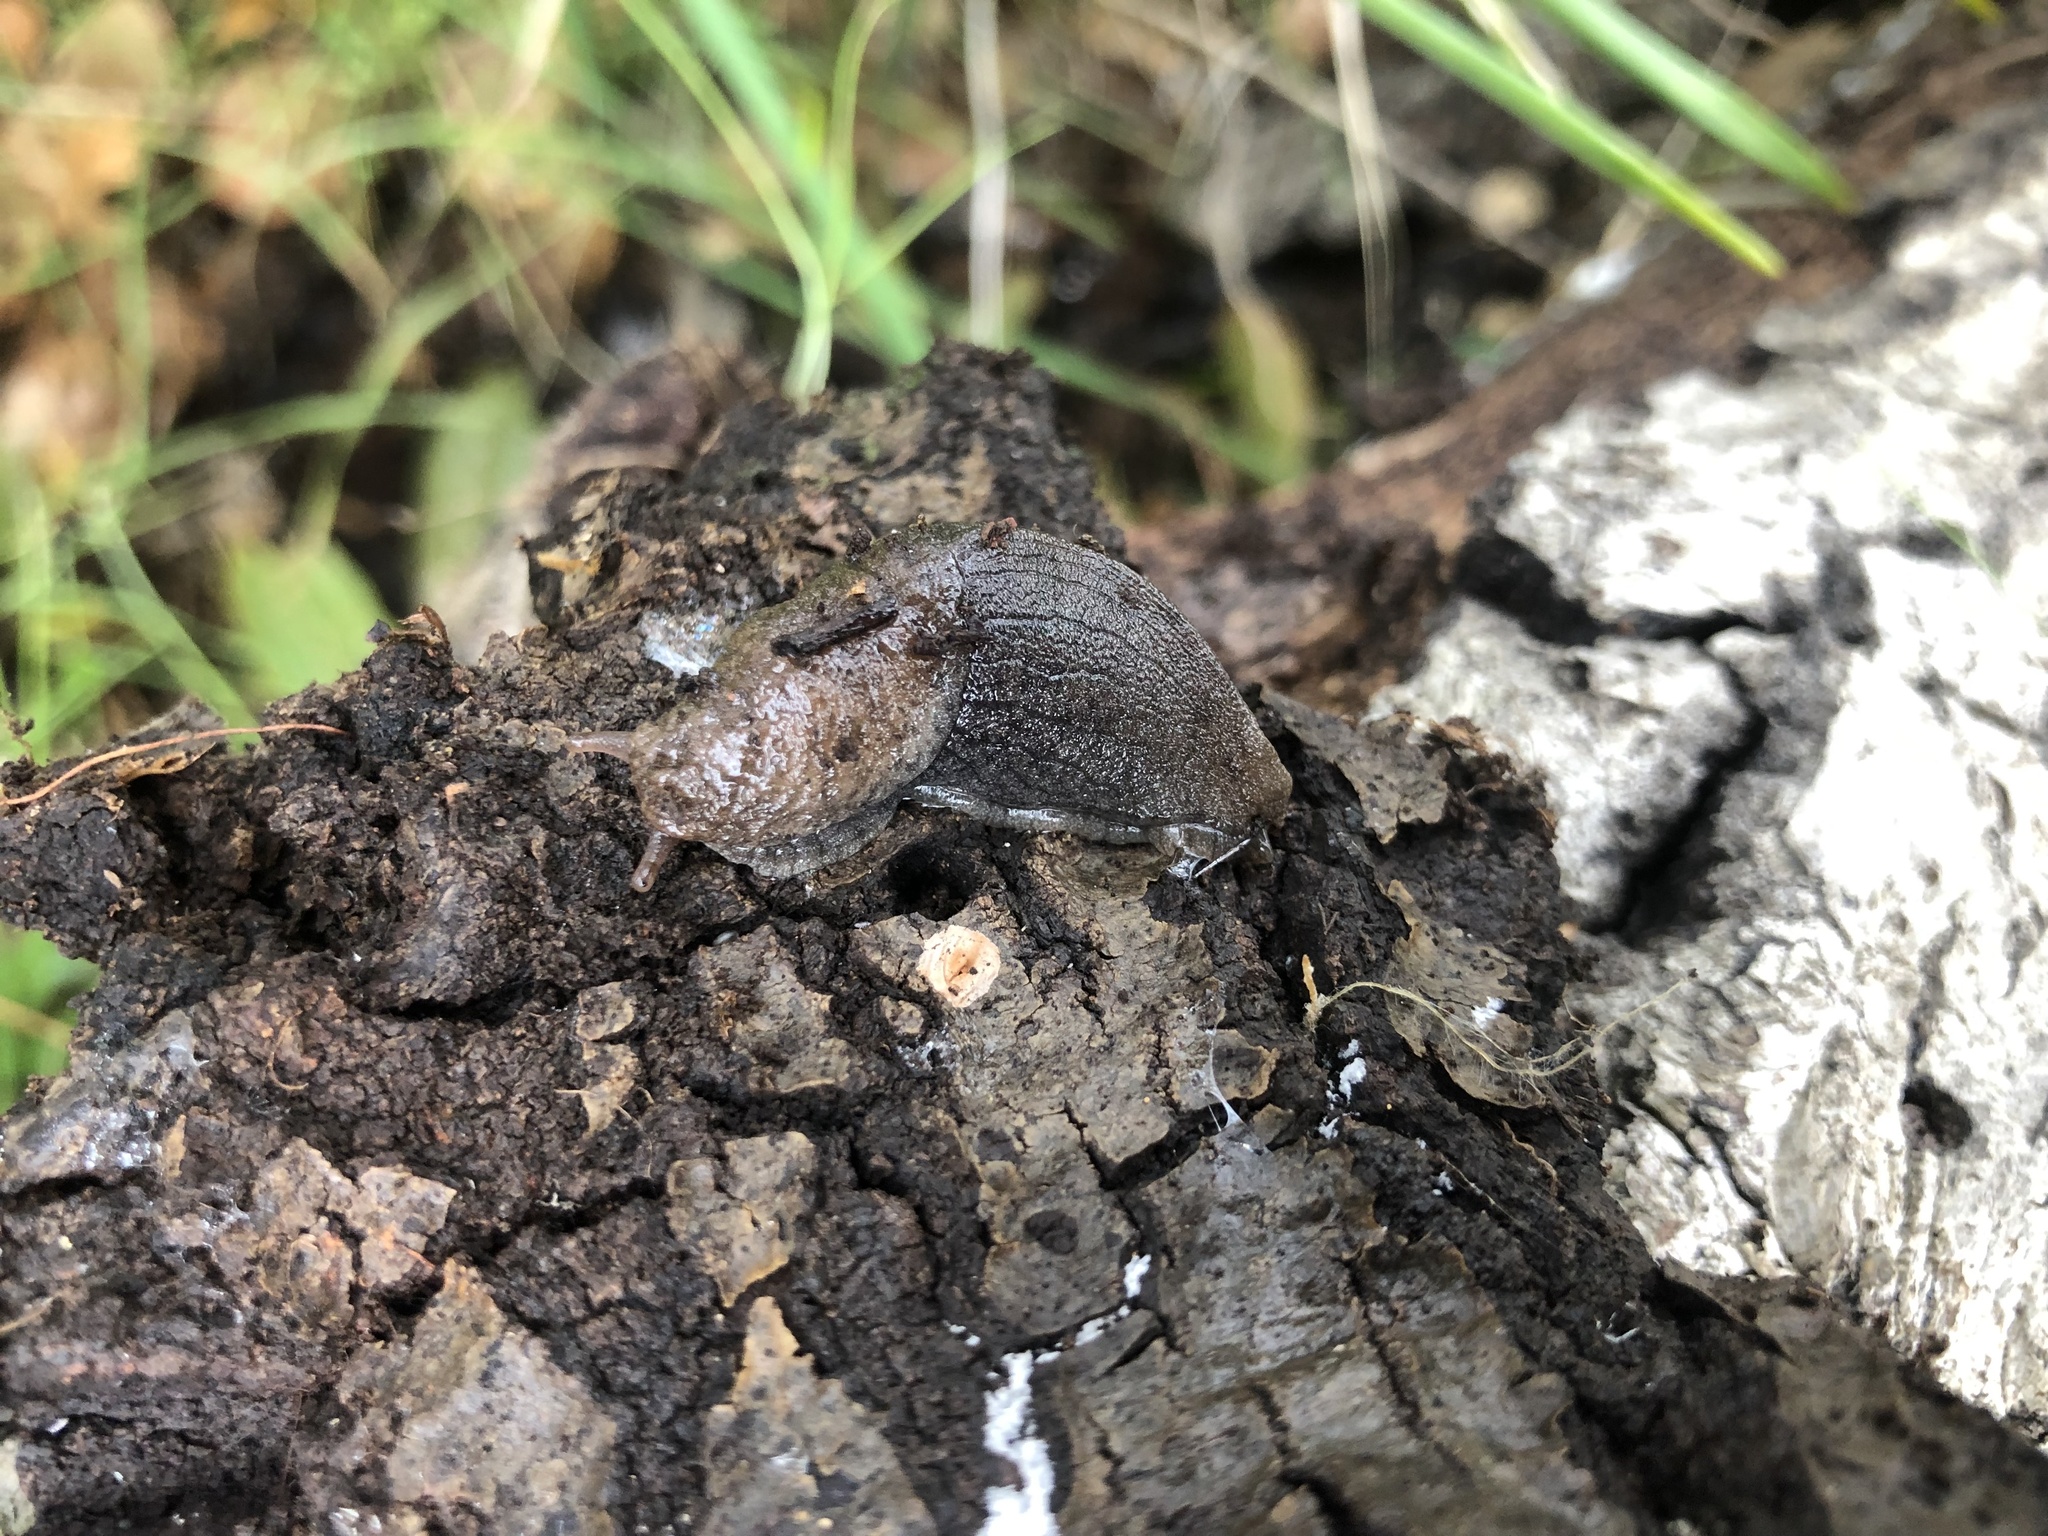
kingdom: Animalia
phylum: Mollusca
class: Gastropoda
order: Stylommatophora
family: Ariolimacidae
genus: Hesperarion
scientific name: Hesperarion niger
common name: Black western slug
